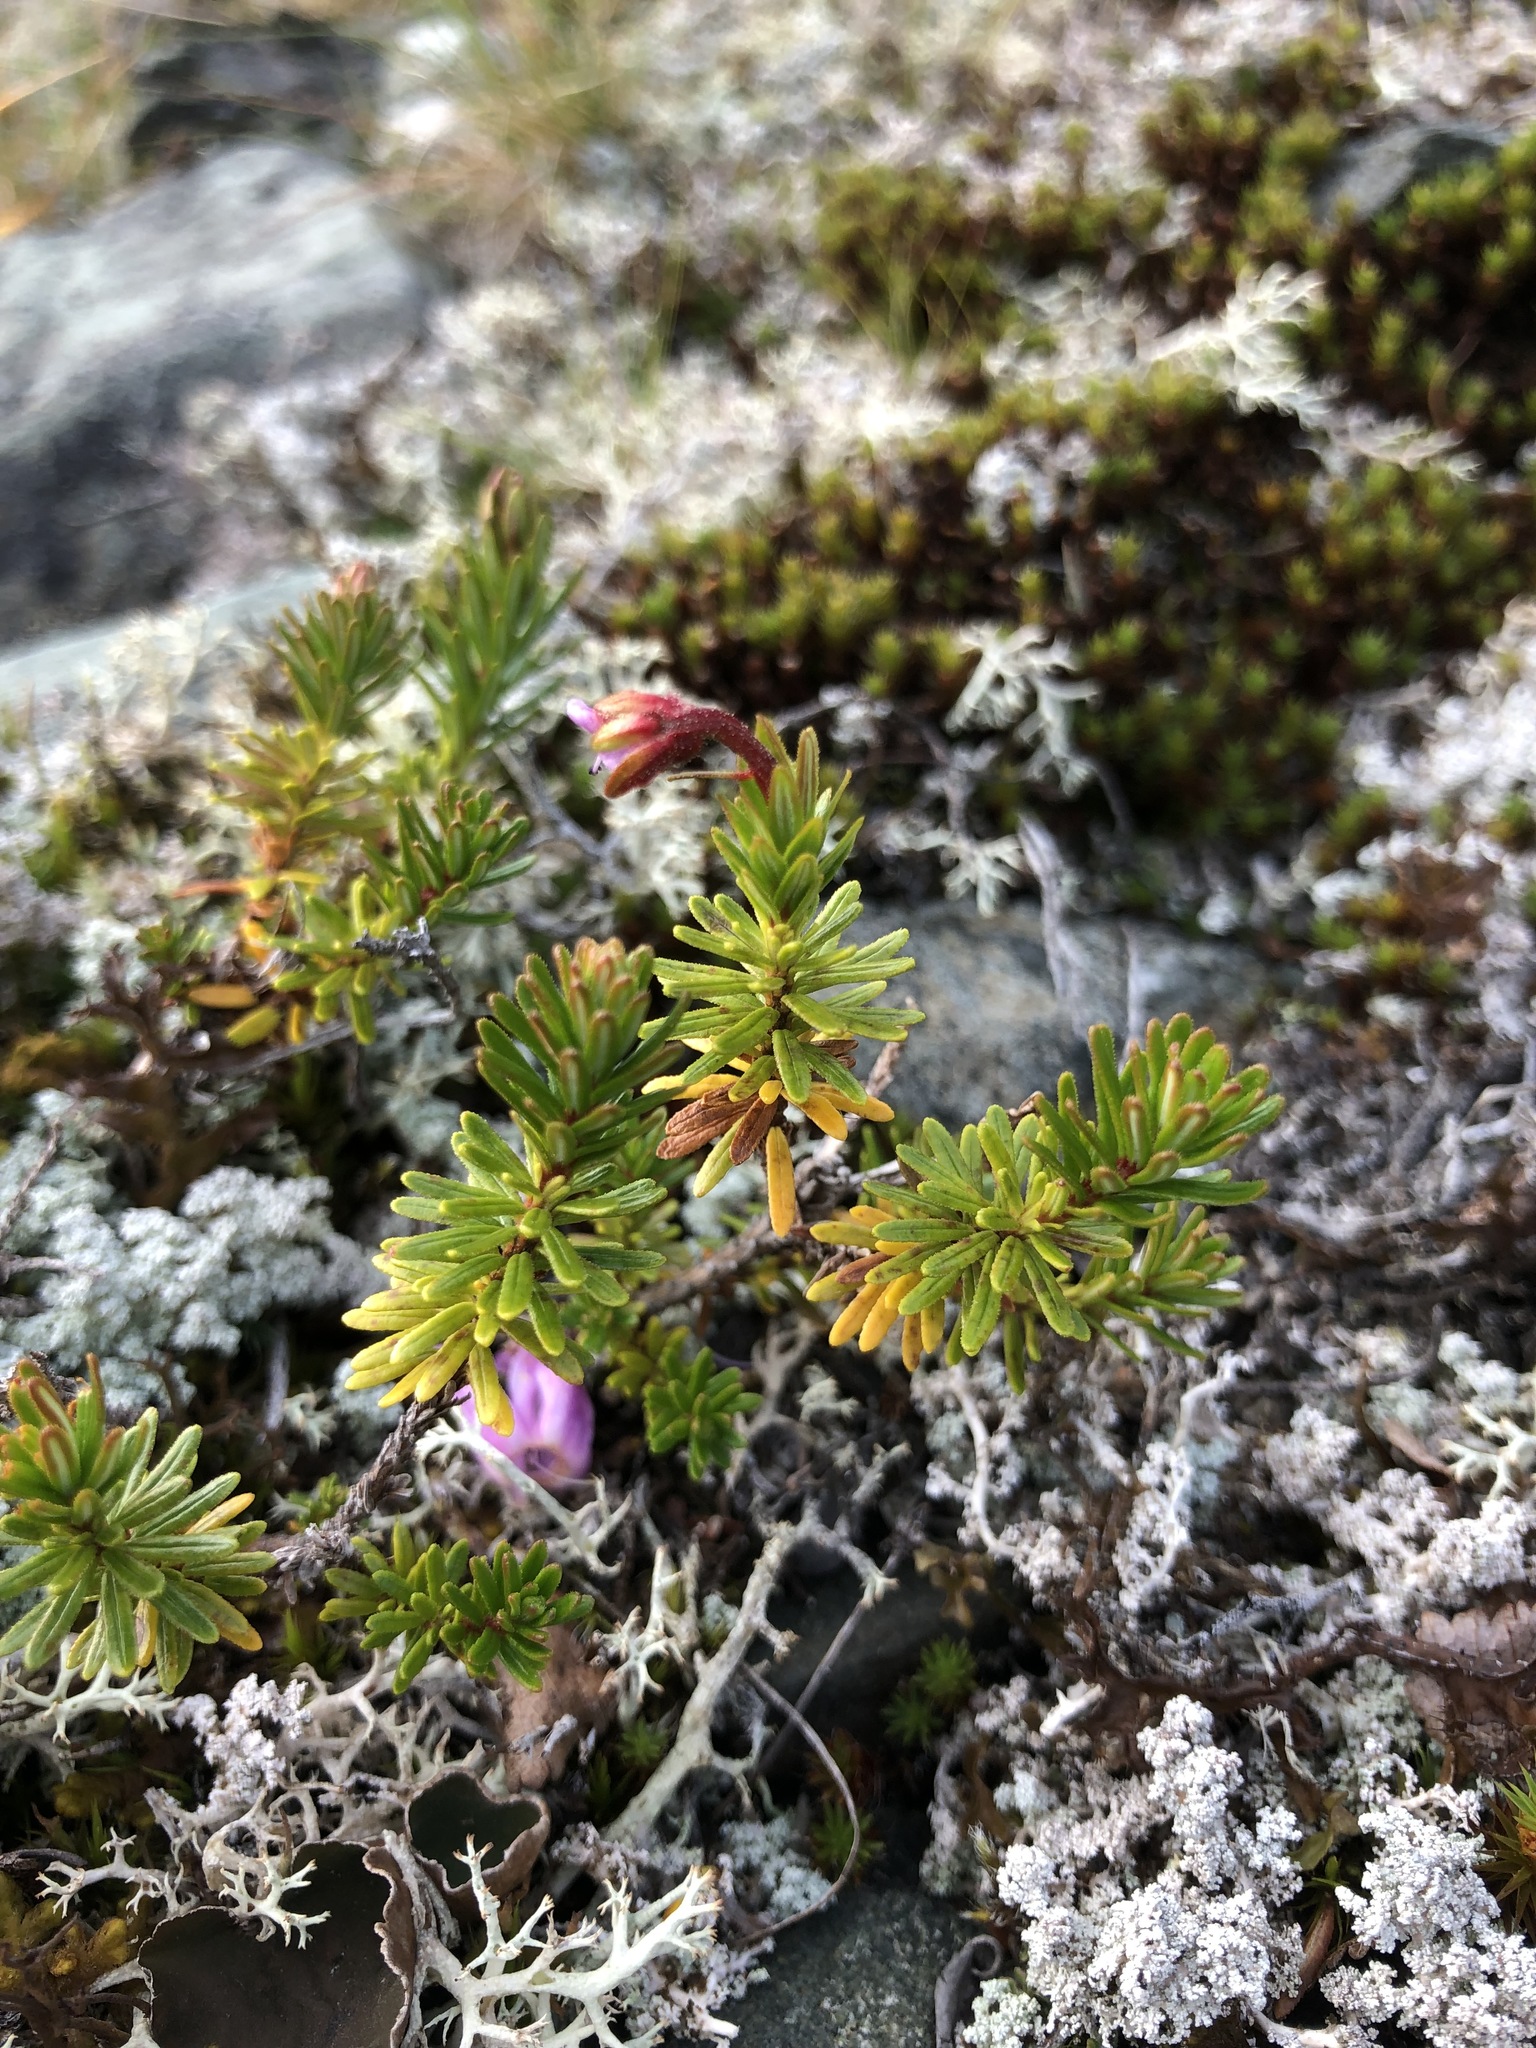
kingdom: Plantae
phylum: Tracheophyta
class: Magnoliopsida
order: Ericales
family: Ericaceae
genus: Phyllodoce
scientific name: Phyllodoce caerulea
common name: Blue heath
